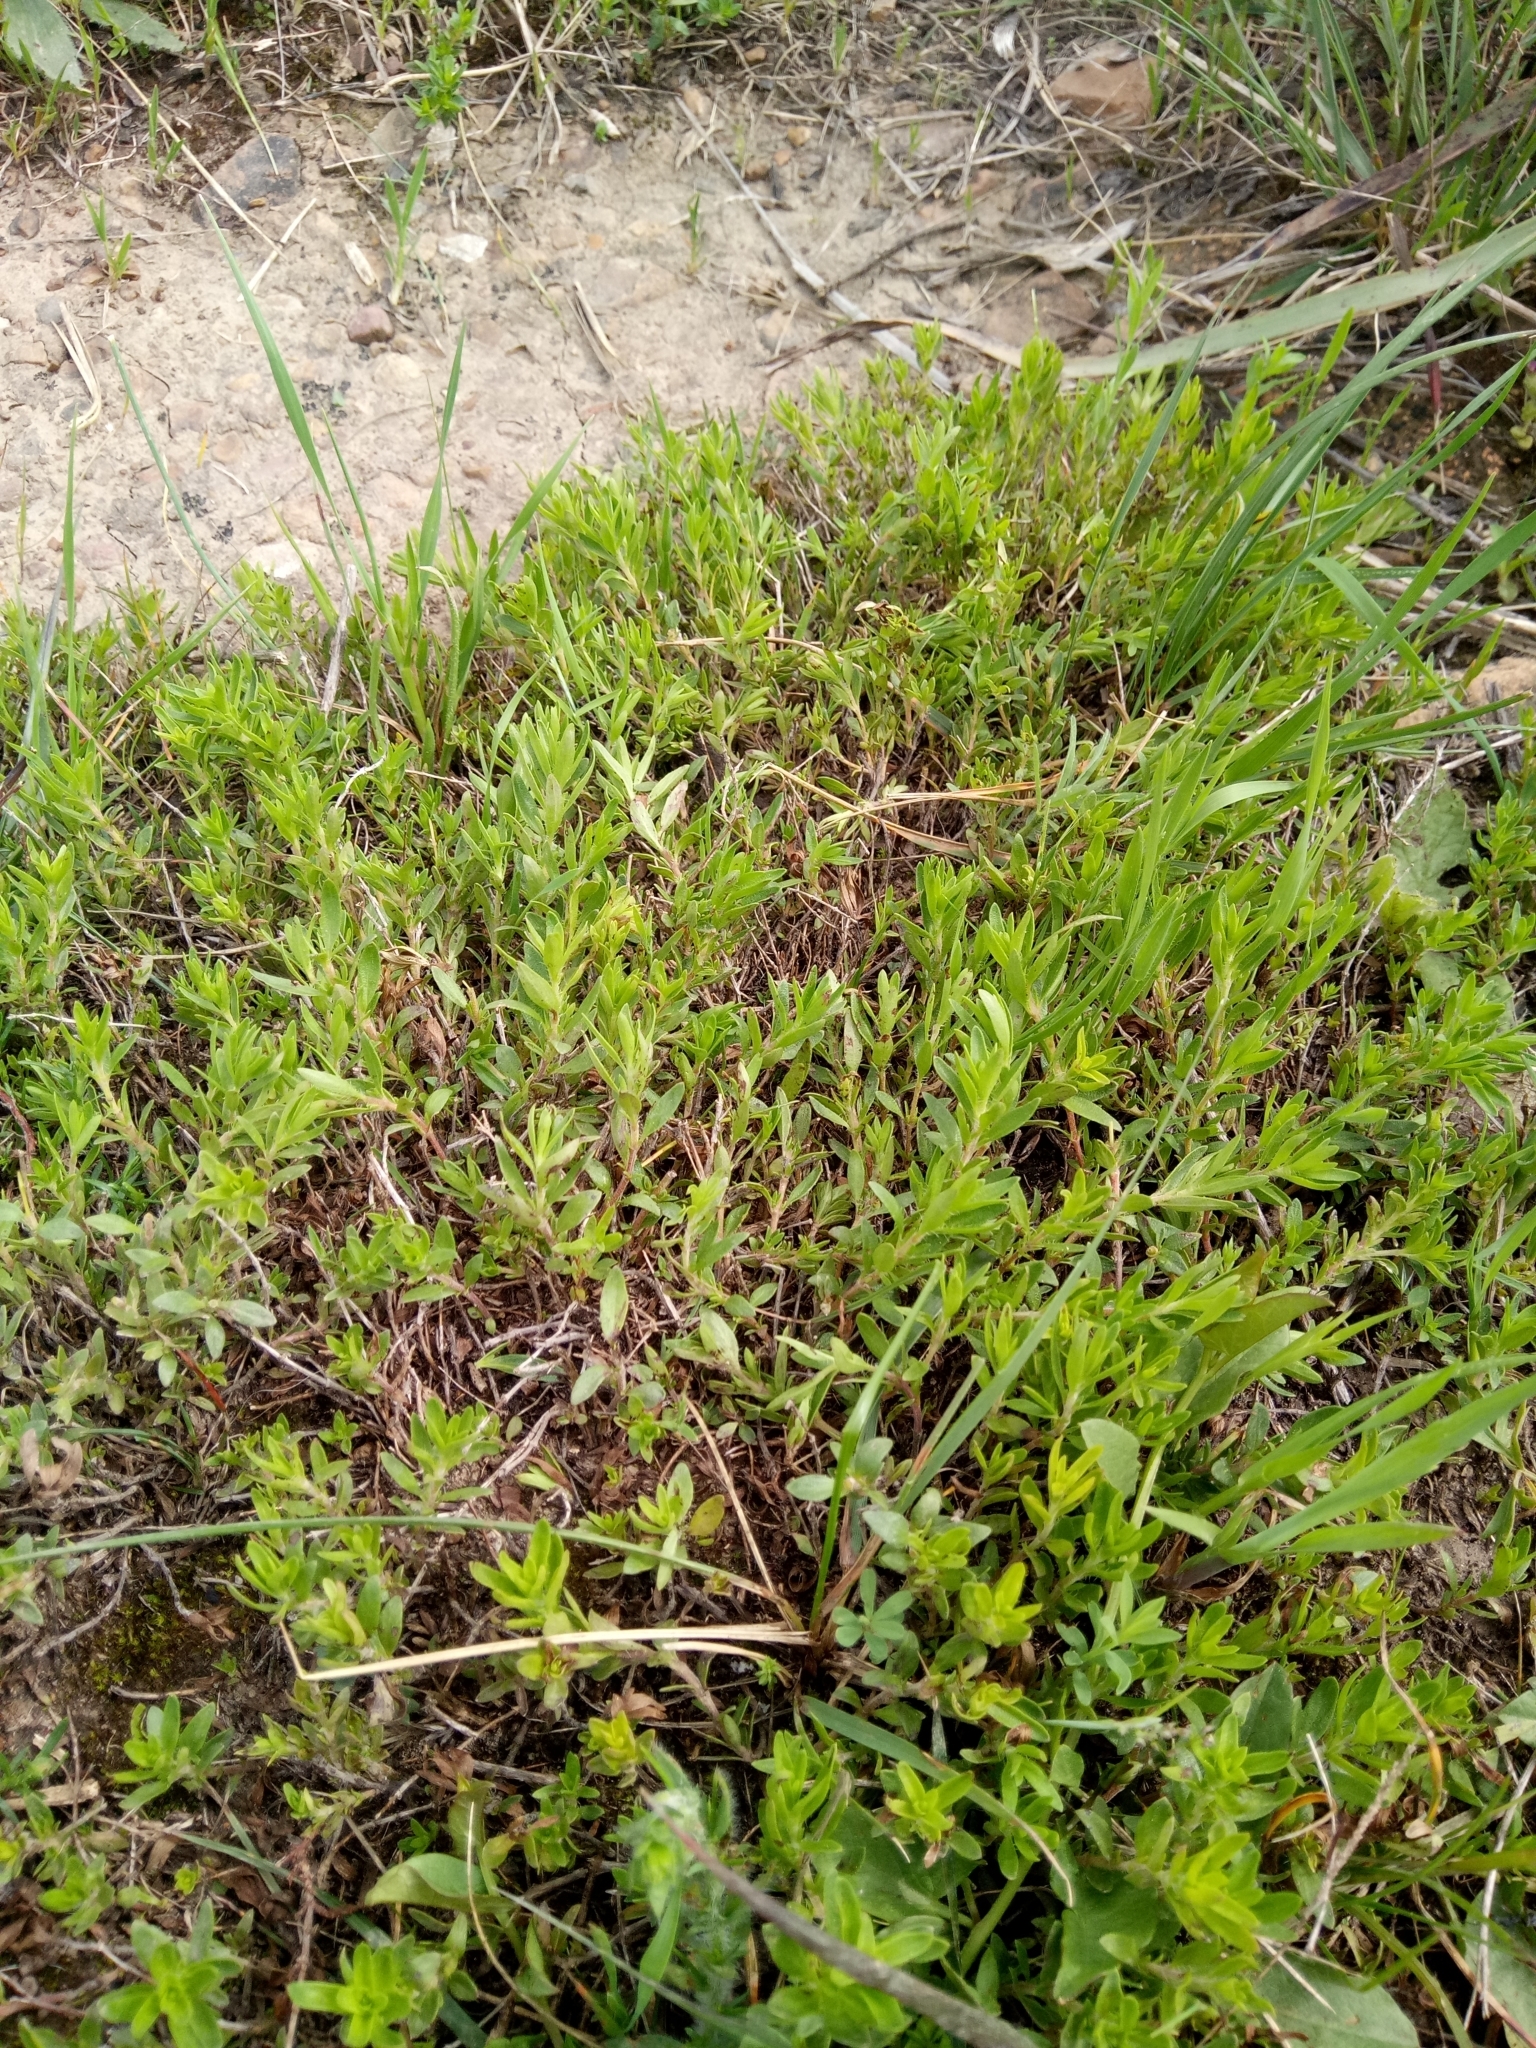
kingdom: Plantae
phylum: Tracheophyta
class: Magnoliopsida
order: Lamiales
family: Lamiaceae
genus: Thymus
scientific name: Thymus numidicus
